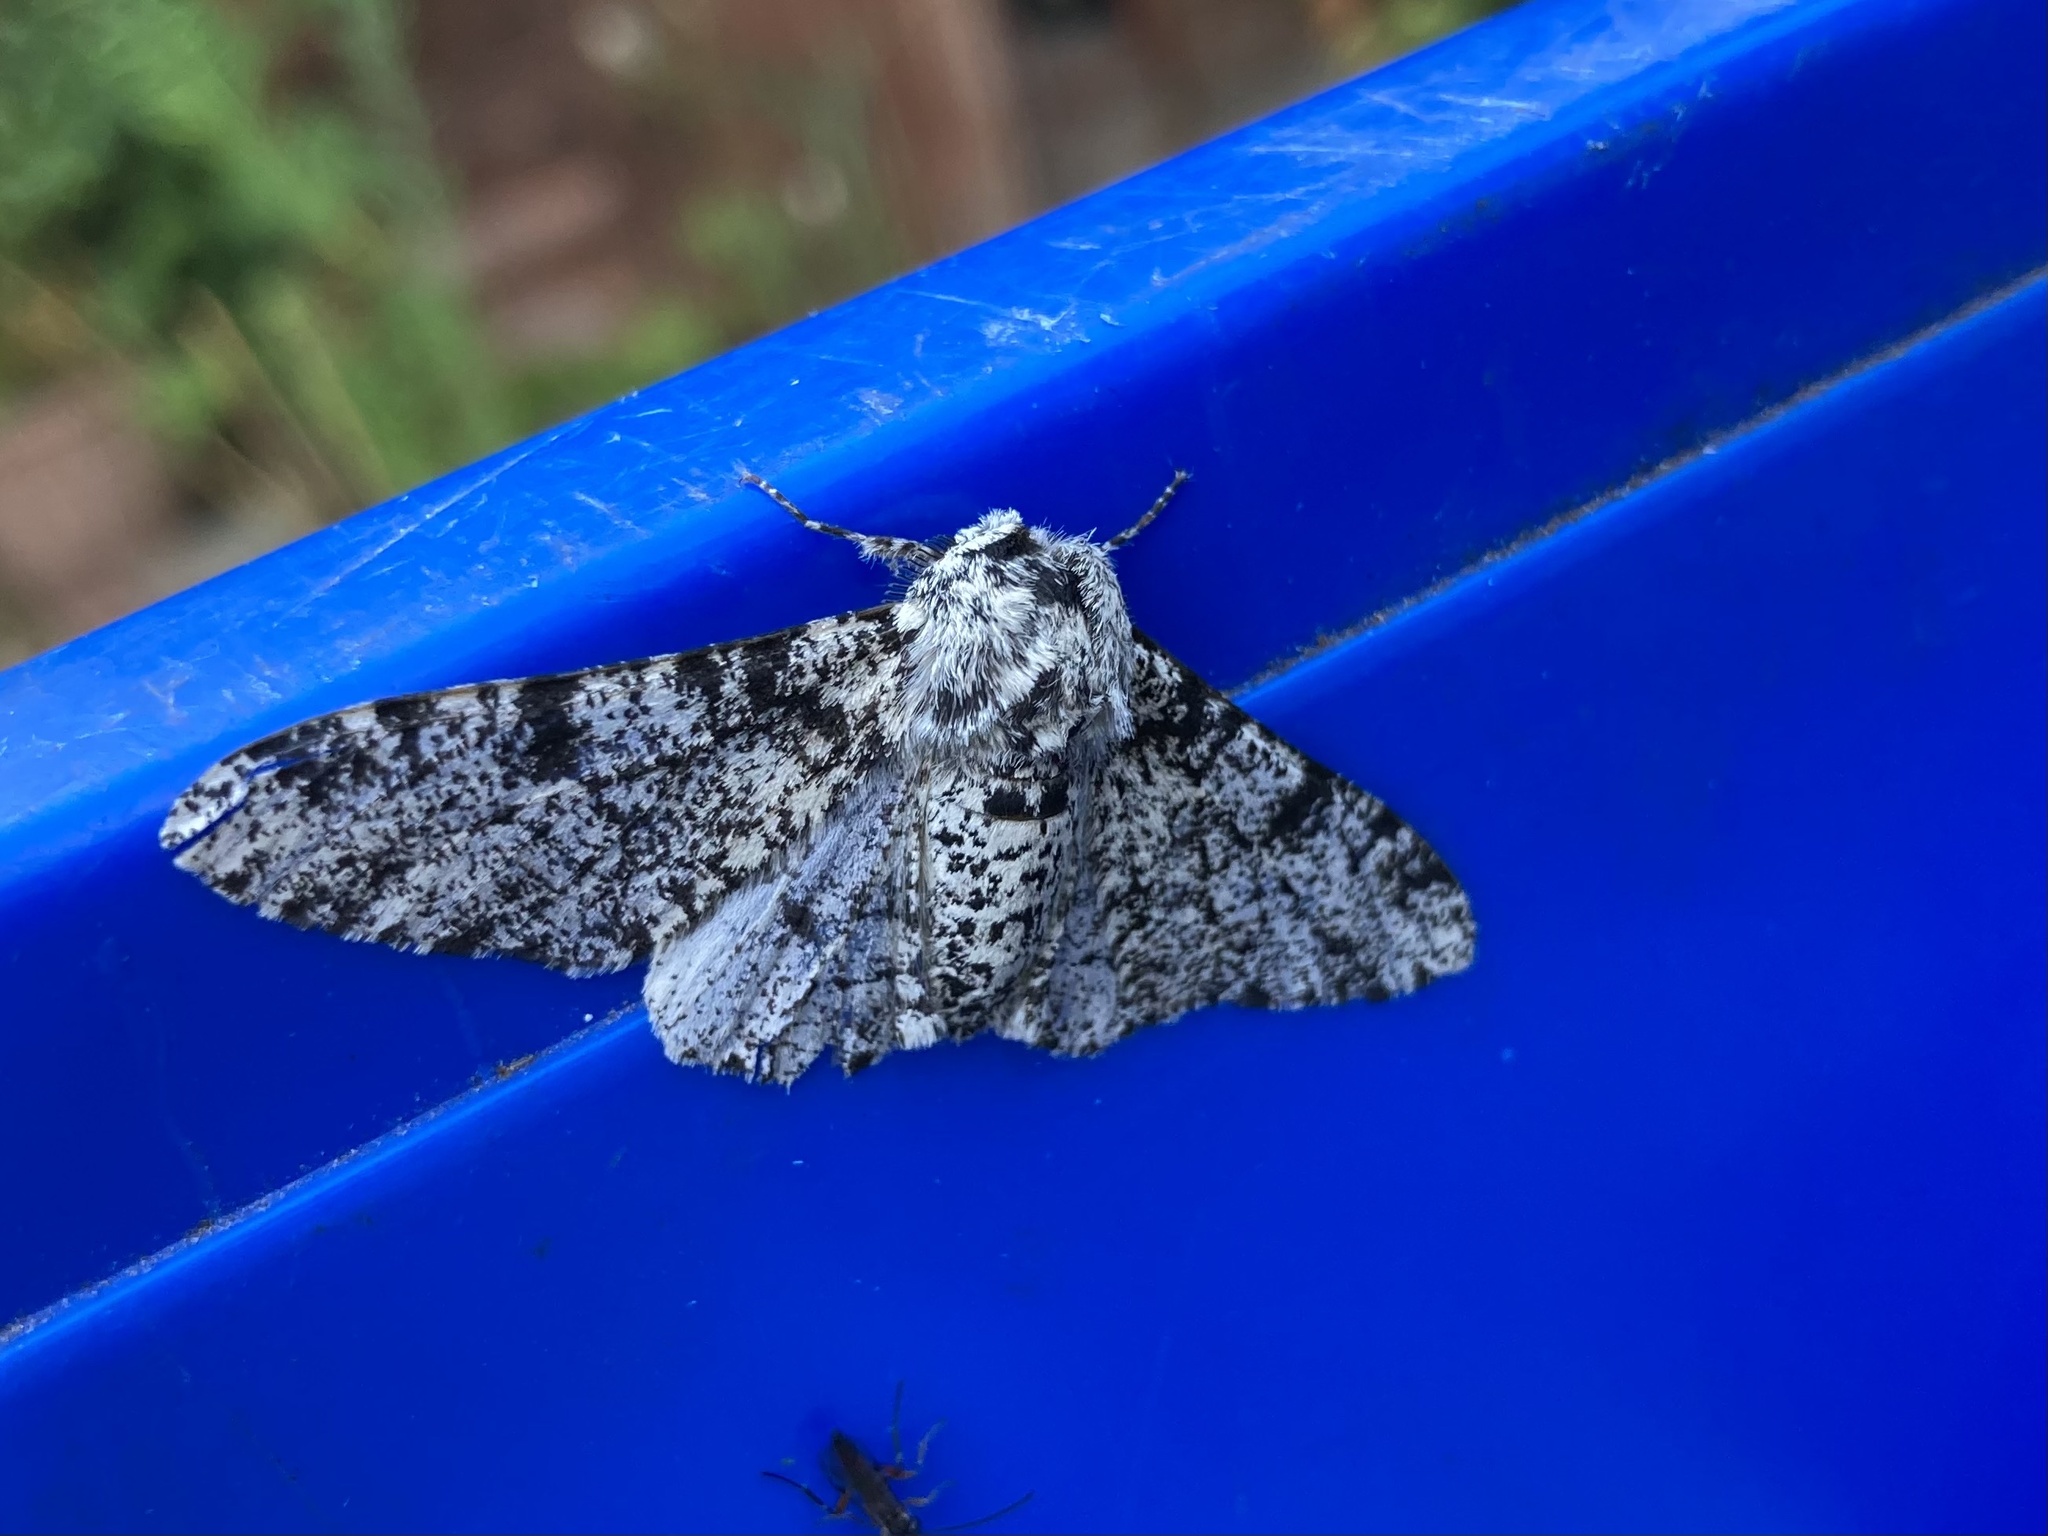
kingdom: Animalia
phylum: Arthropoda
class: Insecta
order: Lepidoptera
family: Geometridae
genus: Biston
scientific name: Biston betularia
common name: Peppered moth
